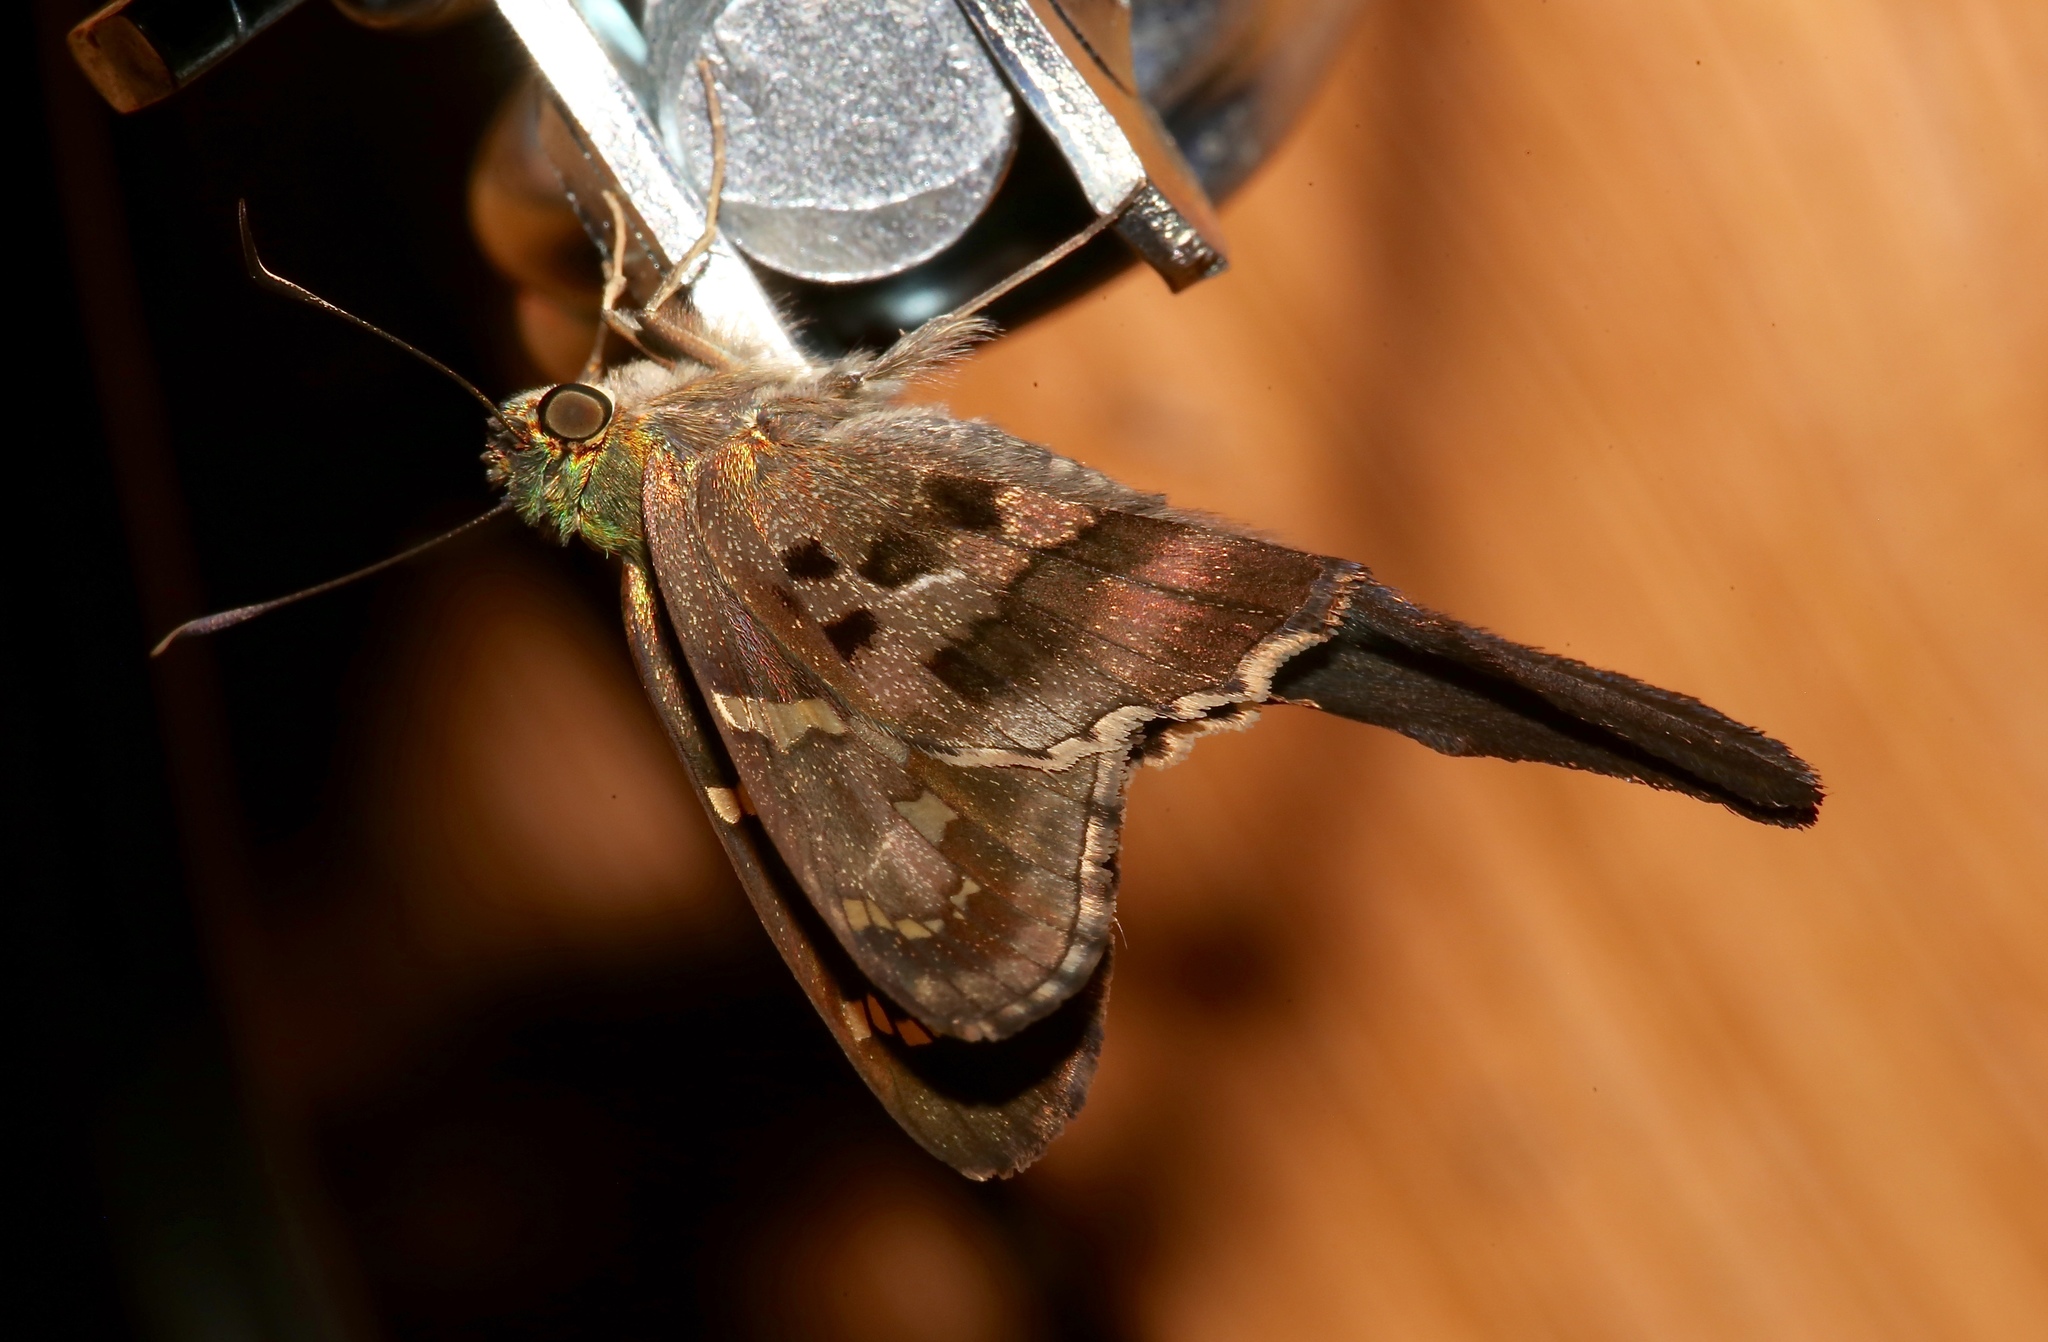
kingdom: Animalia
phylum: Arthropoda
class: Insecta
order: Lepidoptera
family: Hesperiidae
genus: Urbanus
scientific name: Urbanus proteus
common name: Long-tailed skipper
